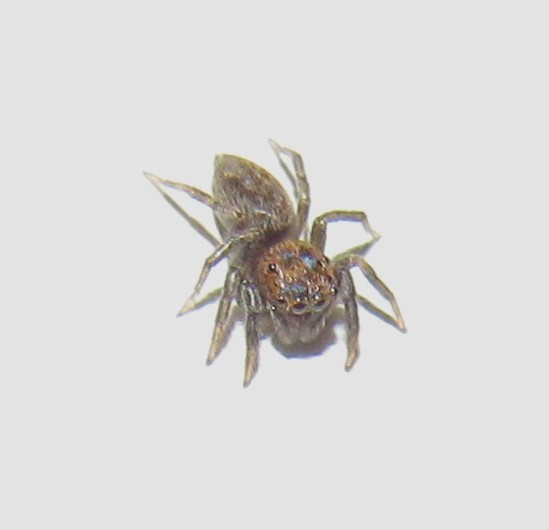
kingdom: Animalia
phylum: Arthropoda
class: Arachnida
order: Araneae
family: Salticidae
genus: Hasarius
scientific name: Hasarius adansoni
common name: Jumping spider
